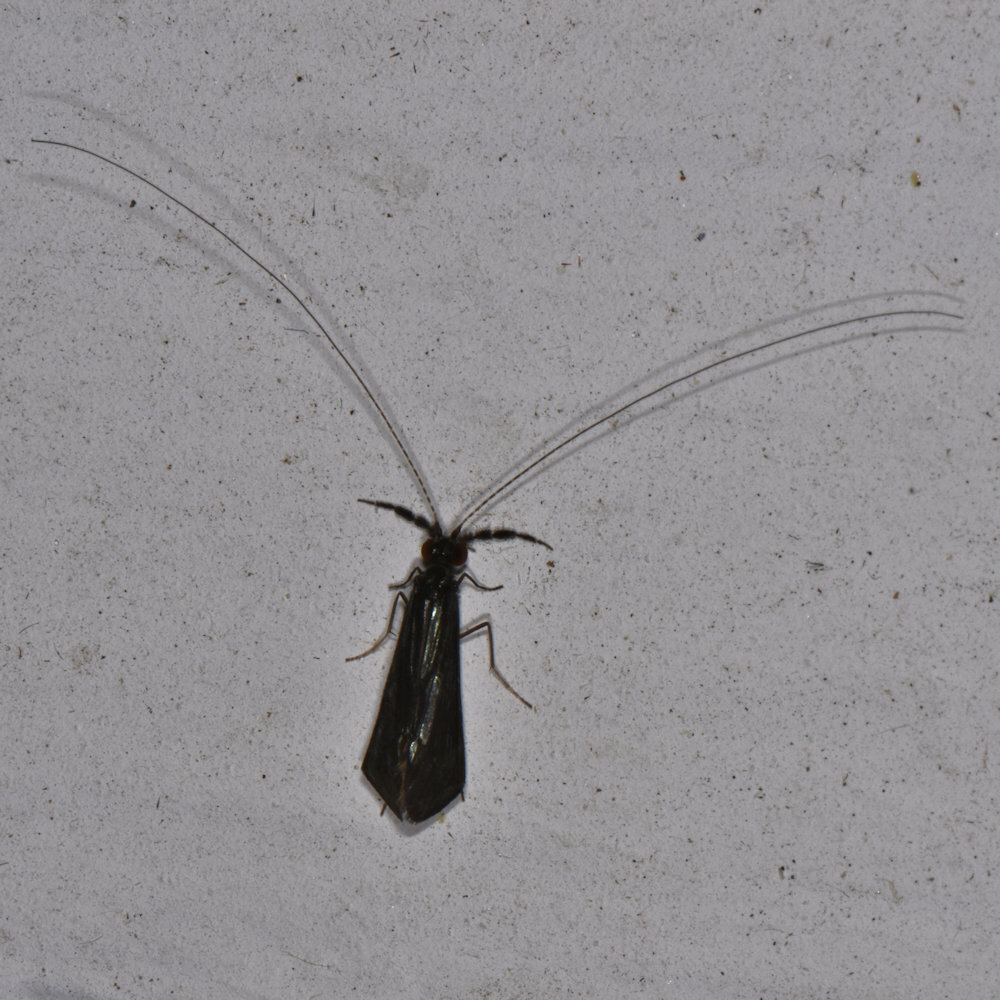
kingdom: Animalia
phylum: Arthropoda
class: Insecta
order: Trichoptera
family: Leptoceridae
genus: Mystacides
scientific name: Mystacides sepulchralis
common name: Black dancer caddisfly
